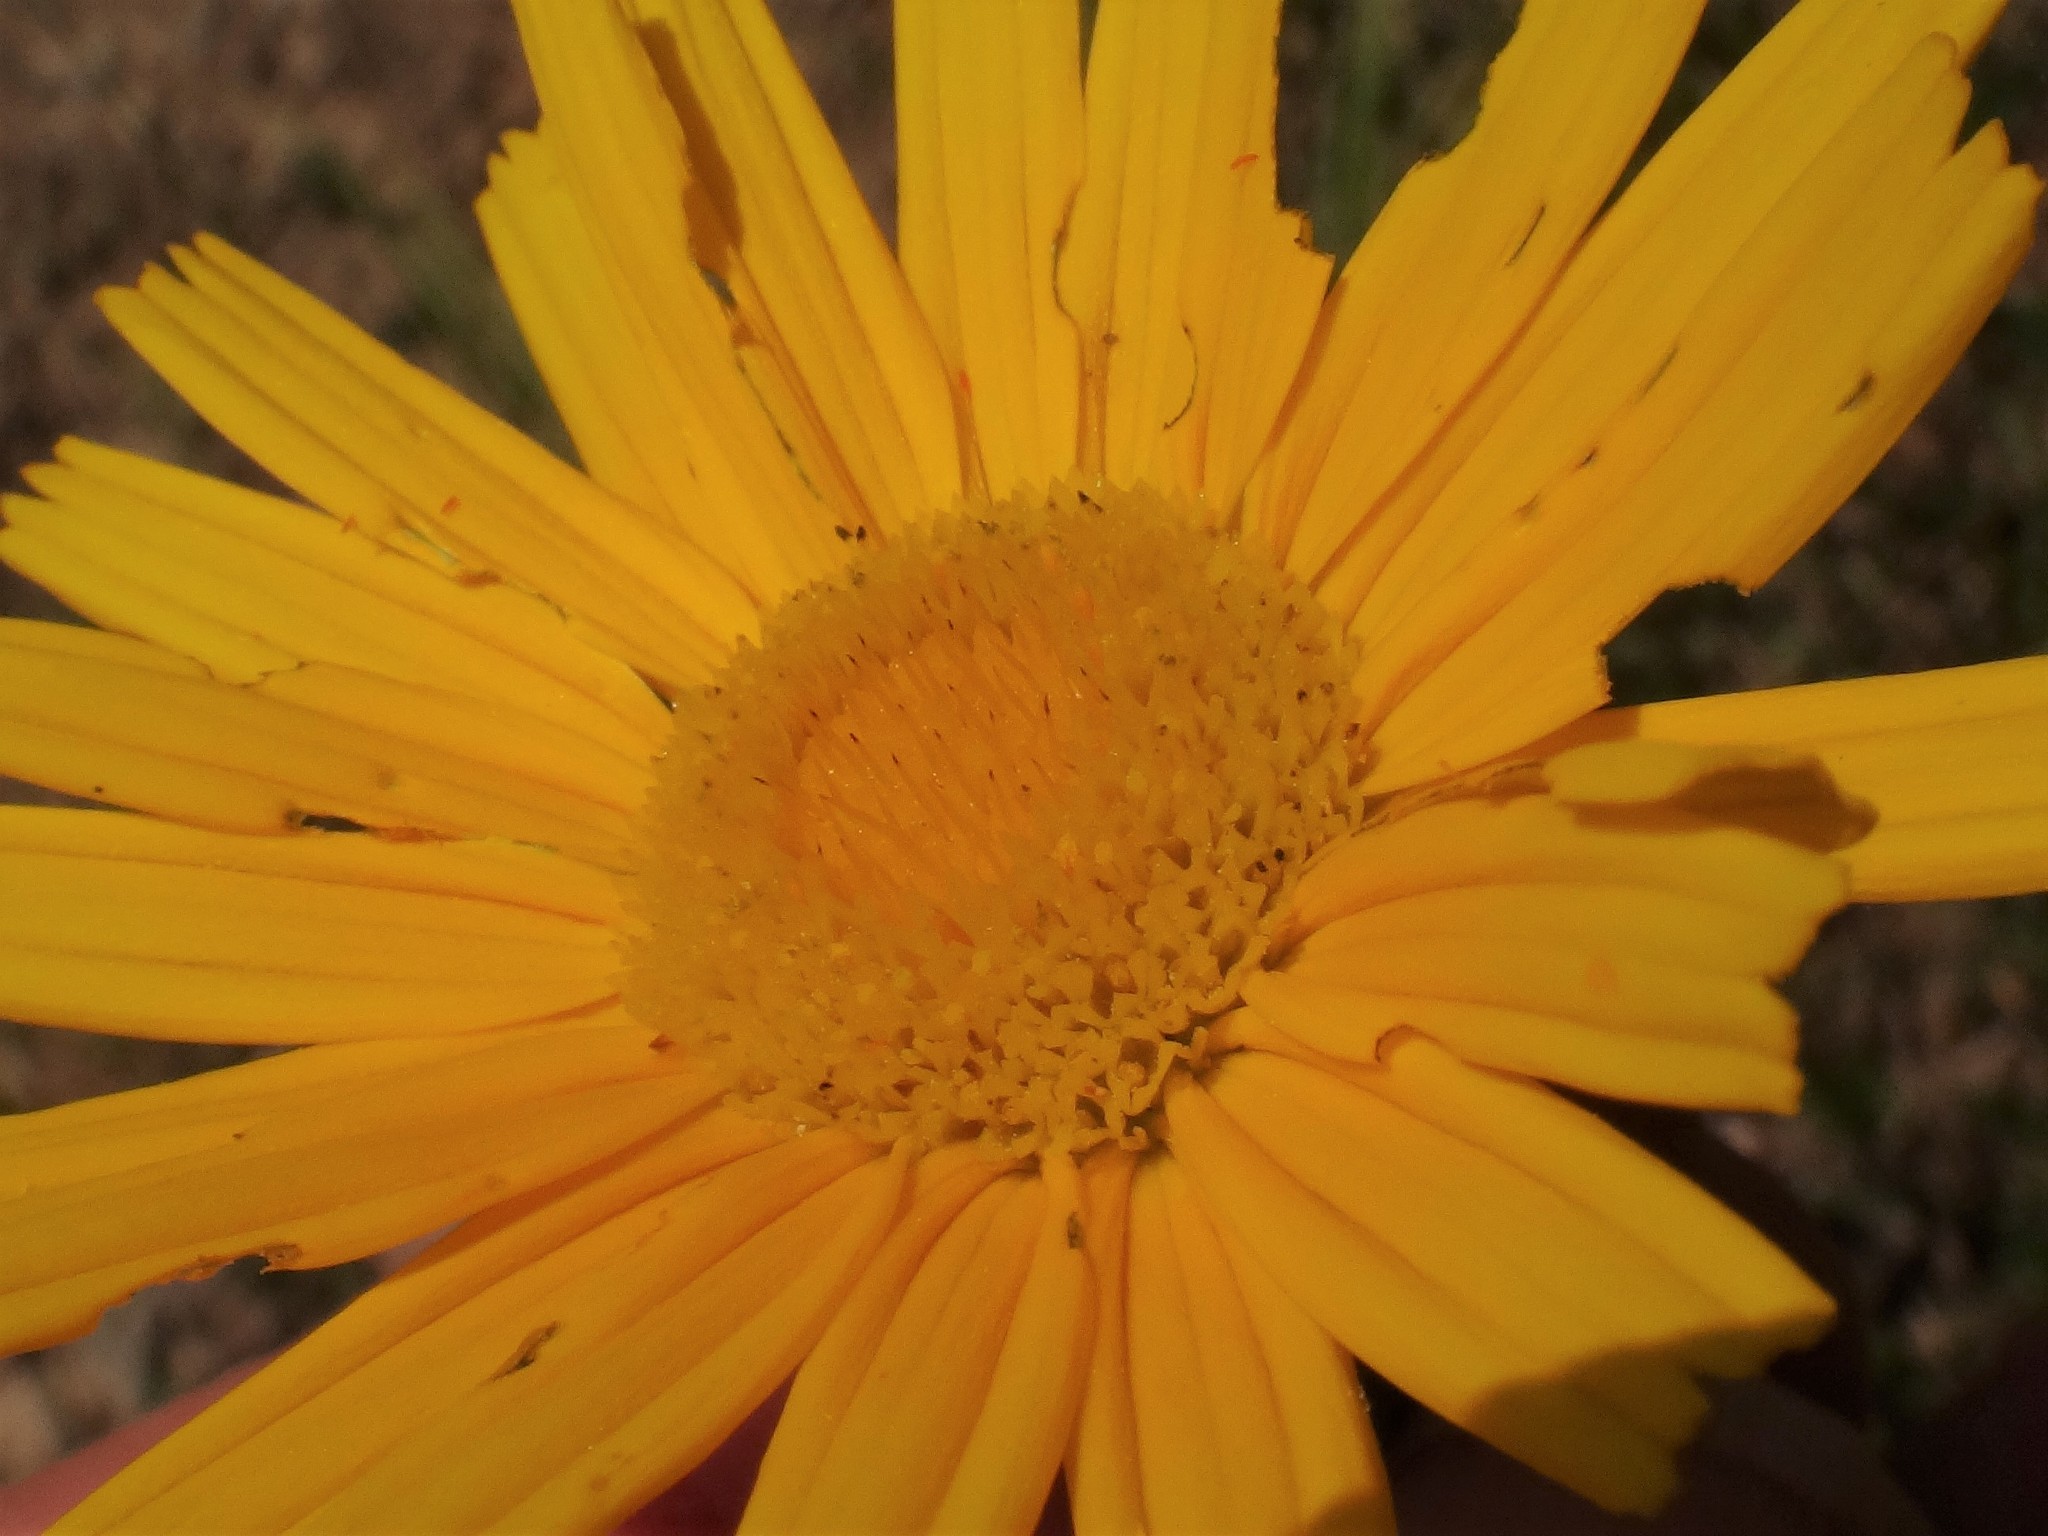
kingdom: Plantae
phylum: Tracheophyta
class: Magnoliopsida
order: Asterales
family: Asteraceae
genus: Buphthalmum
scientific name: Buphthalmum salicifolium
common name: Willow-leaved yellow-oxeye
